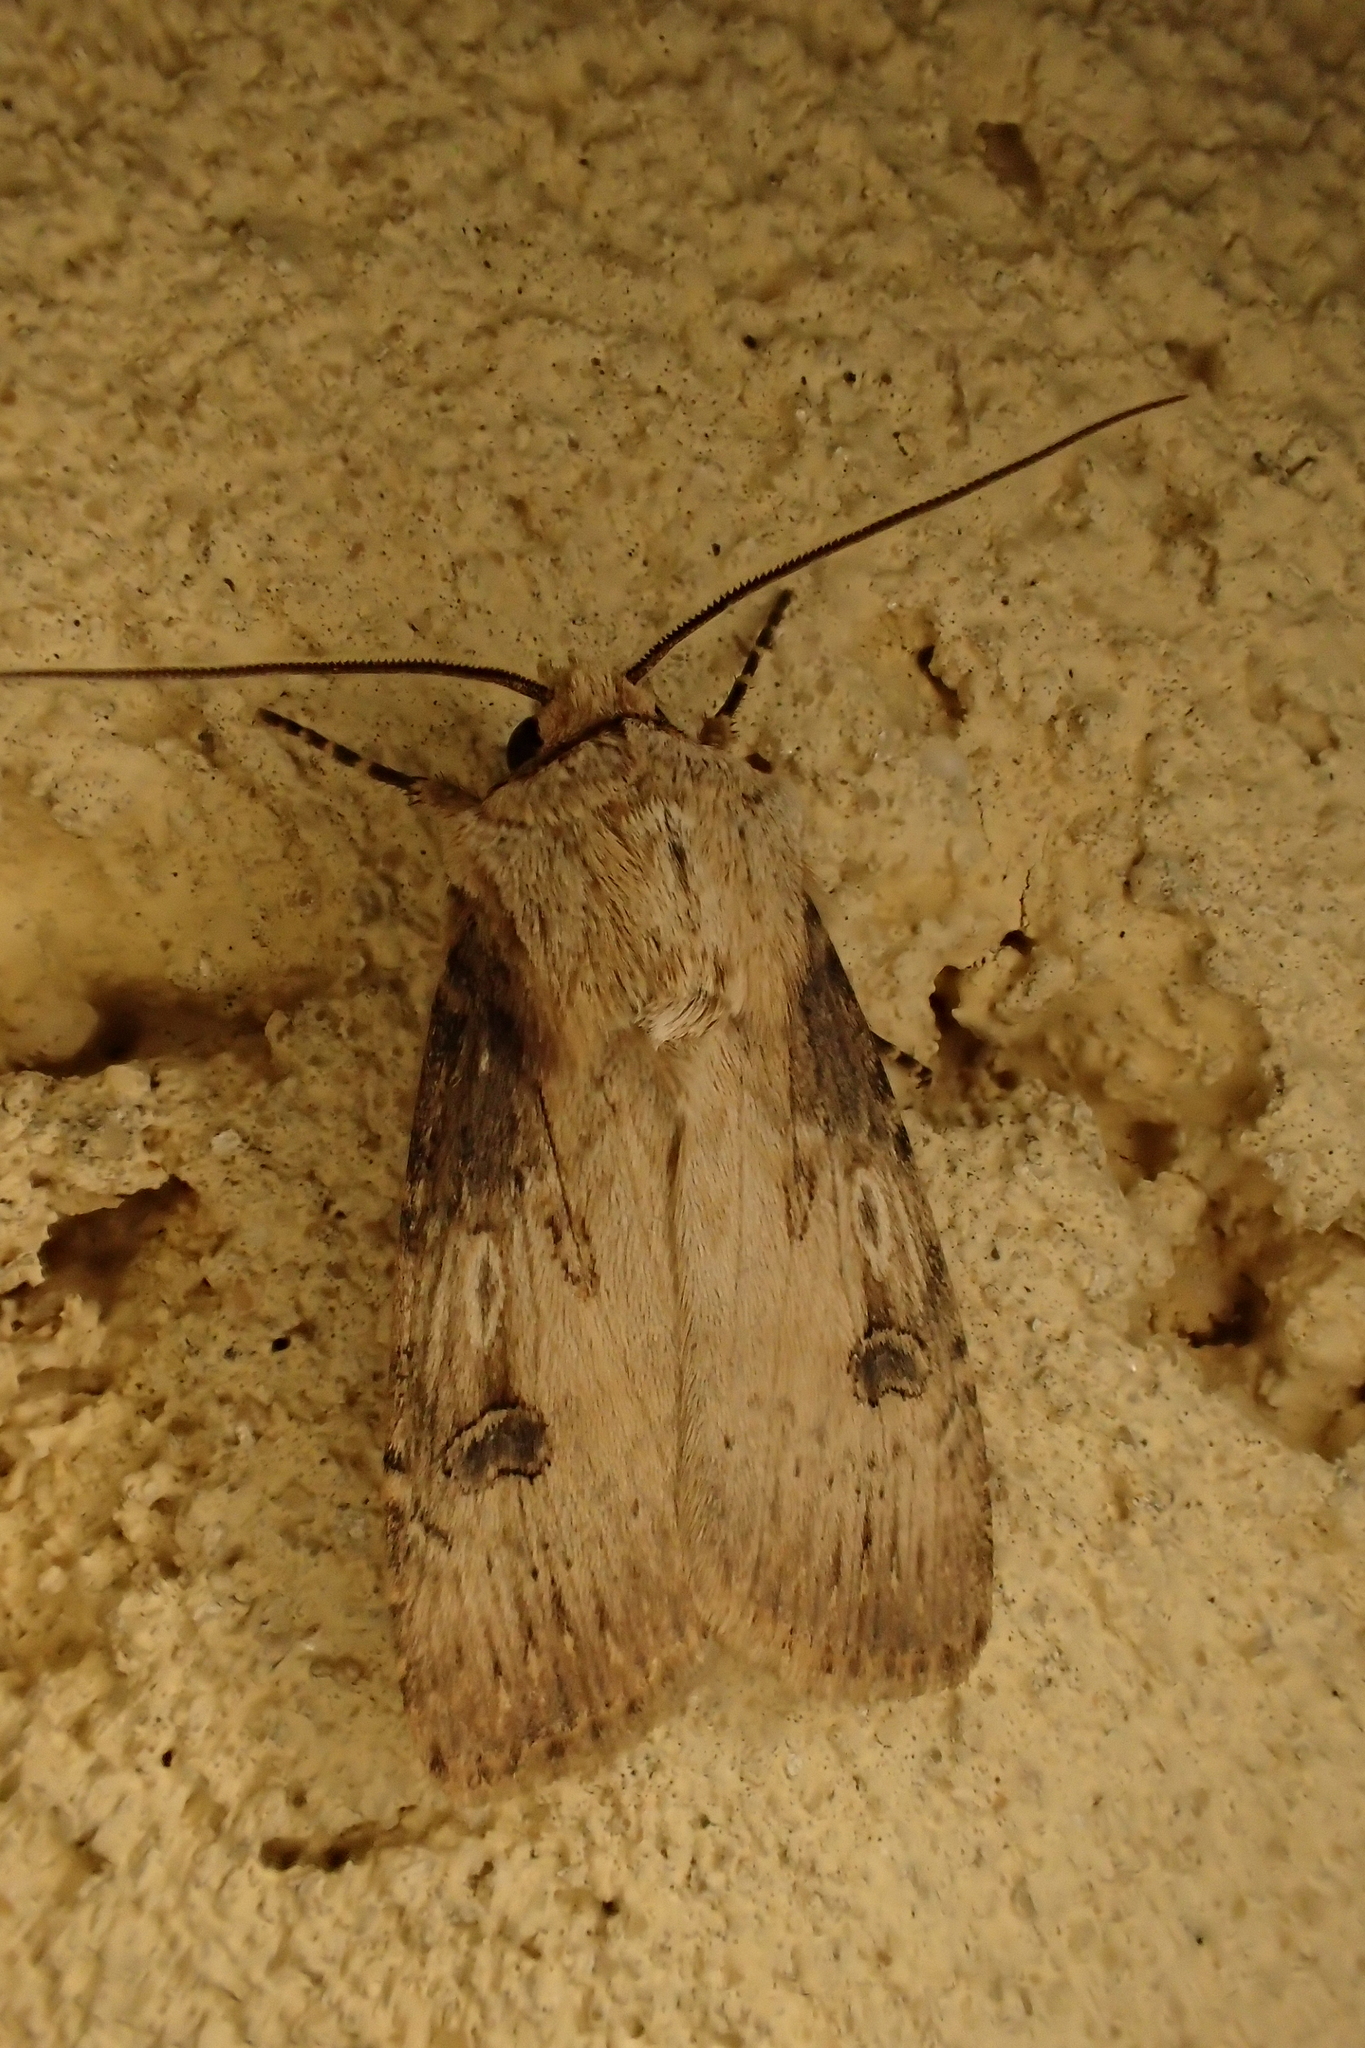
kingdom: Animalia
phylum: Arthropoda
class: Insecta
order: Lepidoptera
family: Noctuidae
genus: Agrotis
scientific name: Agrotis puta
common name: Shuttle-shaped dart
